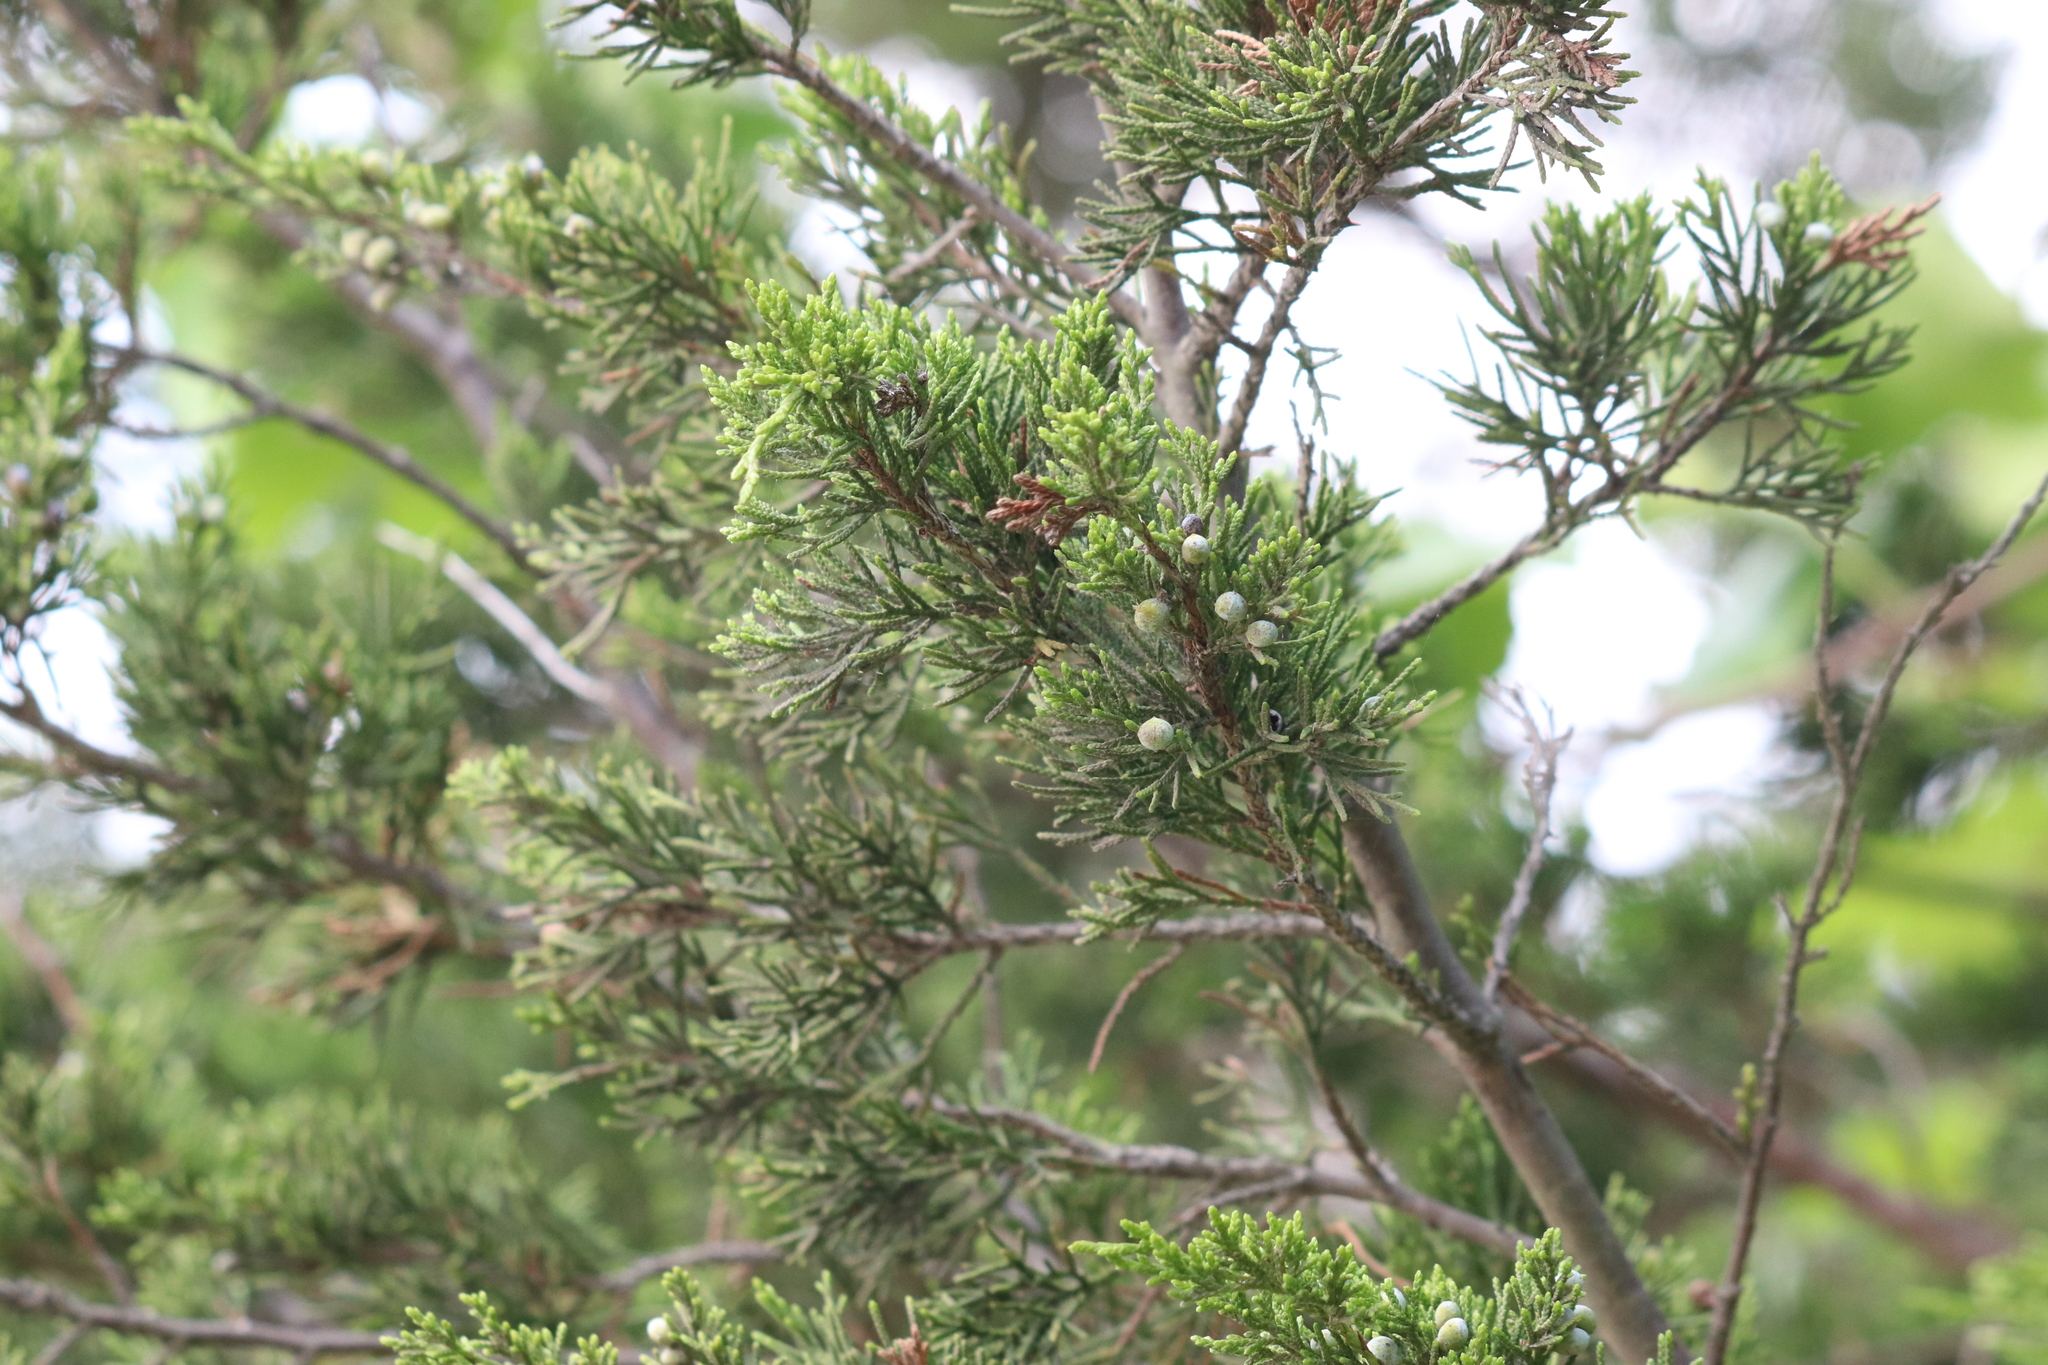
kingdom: Plantae
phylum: Tracheophyta
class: Pinopsida
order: Pinales
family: Cupressaceae
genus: Juniperus
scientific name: Juniperus virginiana
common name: Red juniper
